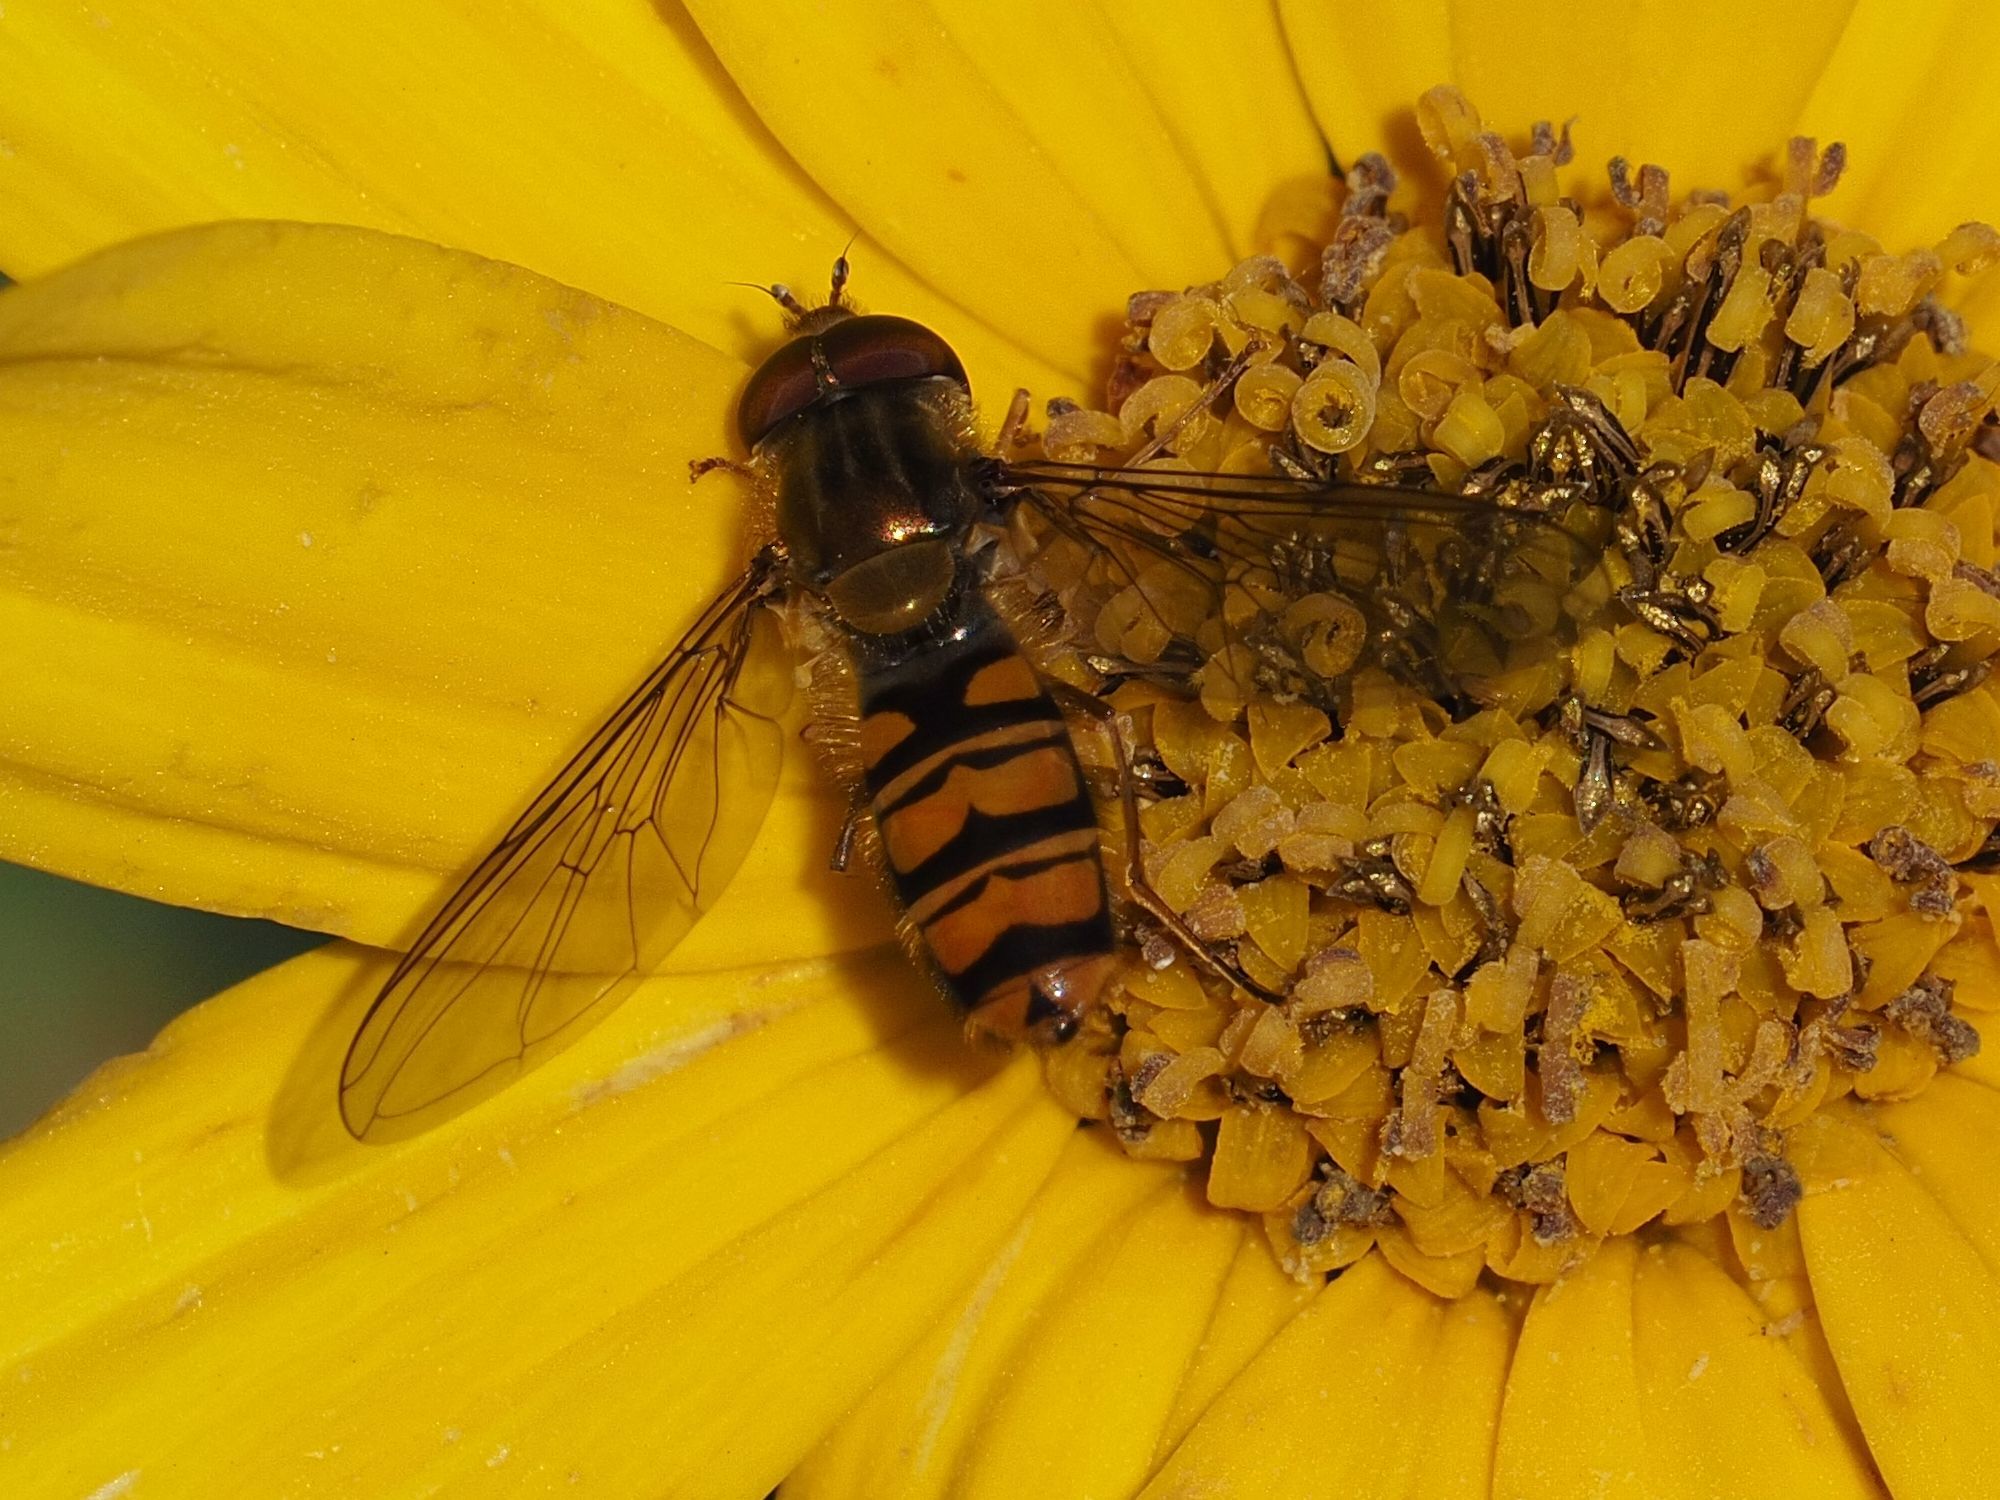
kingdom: Animalia
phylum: Arthropoda
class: Insecta
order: Diptera
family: Syrphidae
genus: Episyrphus
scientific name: Episyrphus balteatus
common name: Marmalade hoverfly
